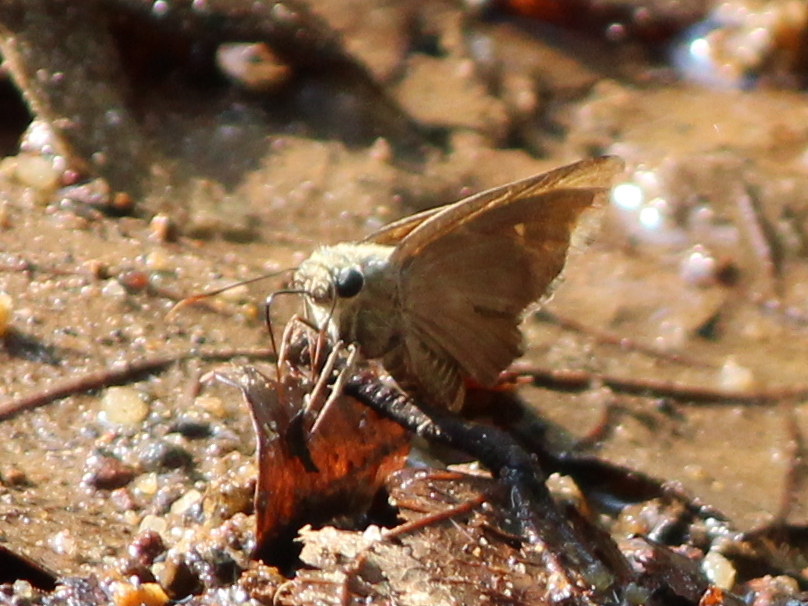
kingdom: Animalia
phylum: Arthropoda
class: Insecta
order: Lepidoptera
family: Hesperiidae
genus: Badamia
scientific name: Badamia exclamationis
